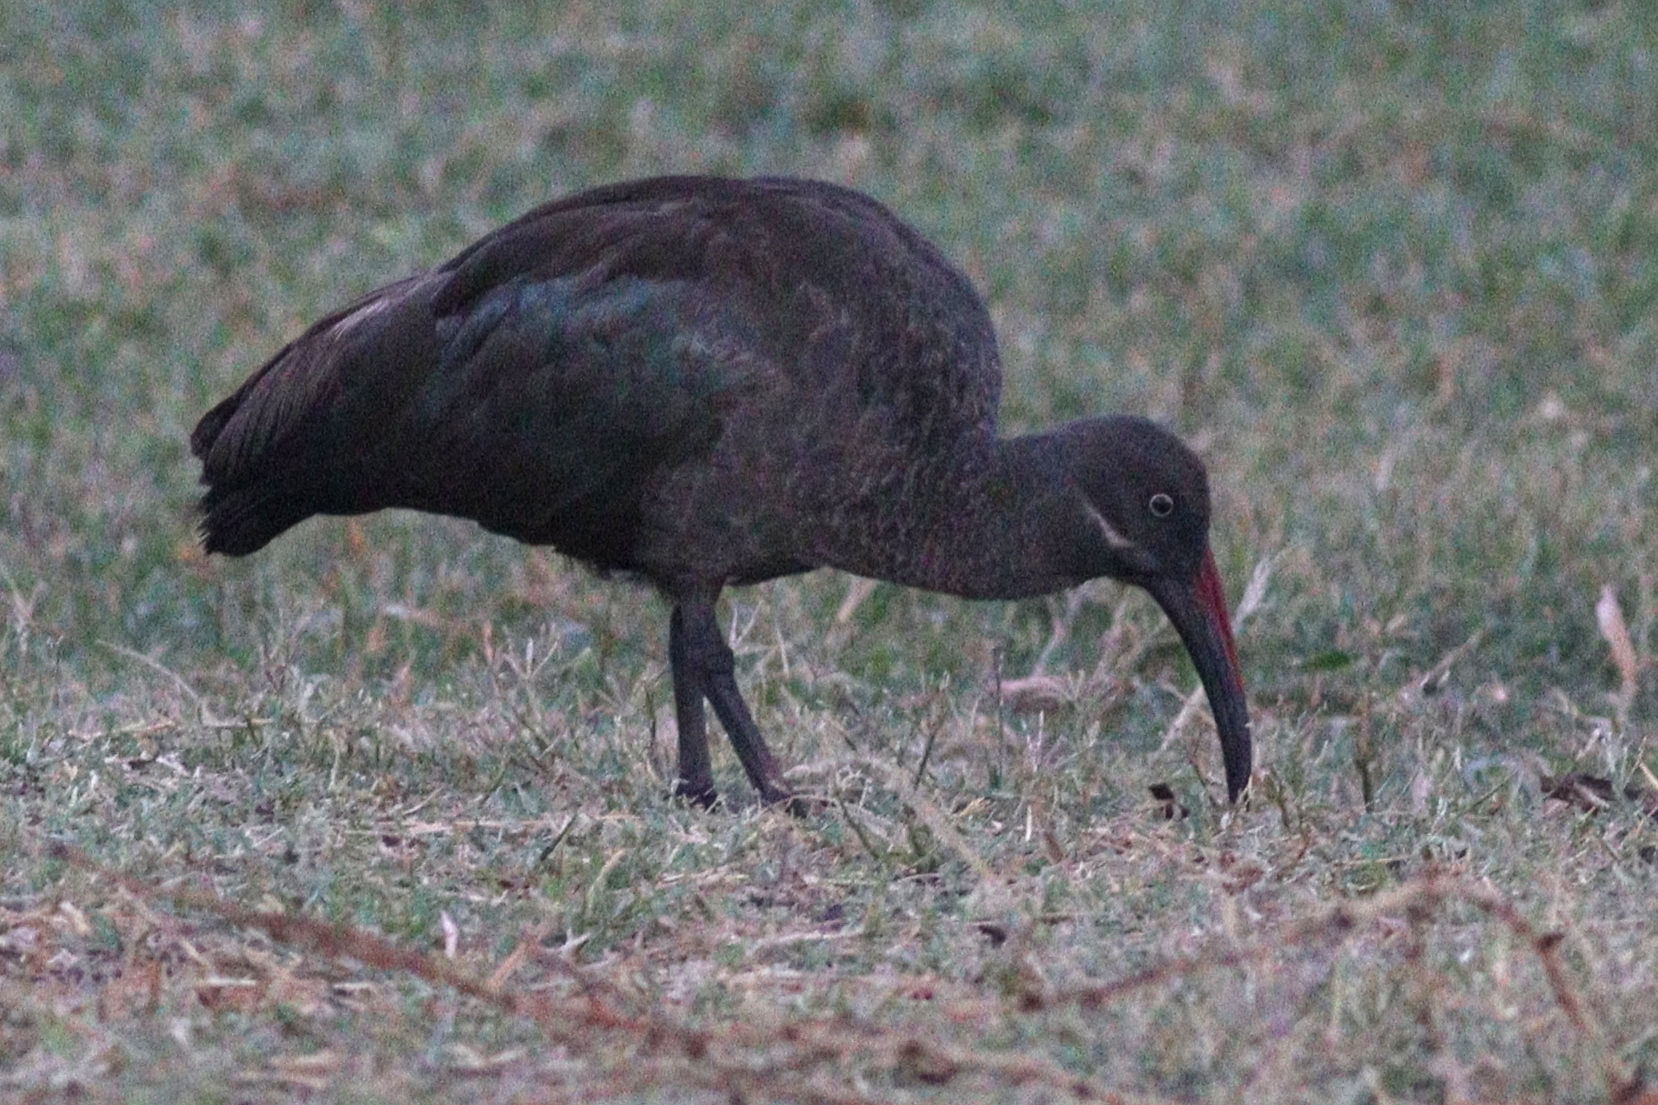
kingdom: Animalia
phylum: Chordata
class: Aves
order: Pelecaniformes
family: Threskiornithidae
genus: Bostrychia
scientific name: Bostrychia hagedash
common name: Hadada ibis
